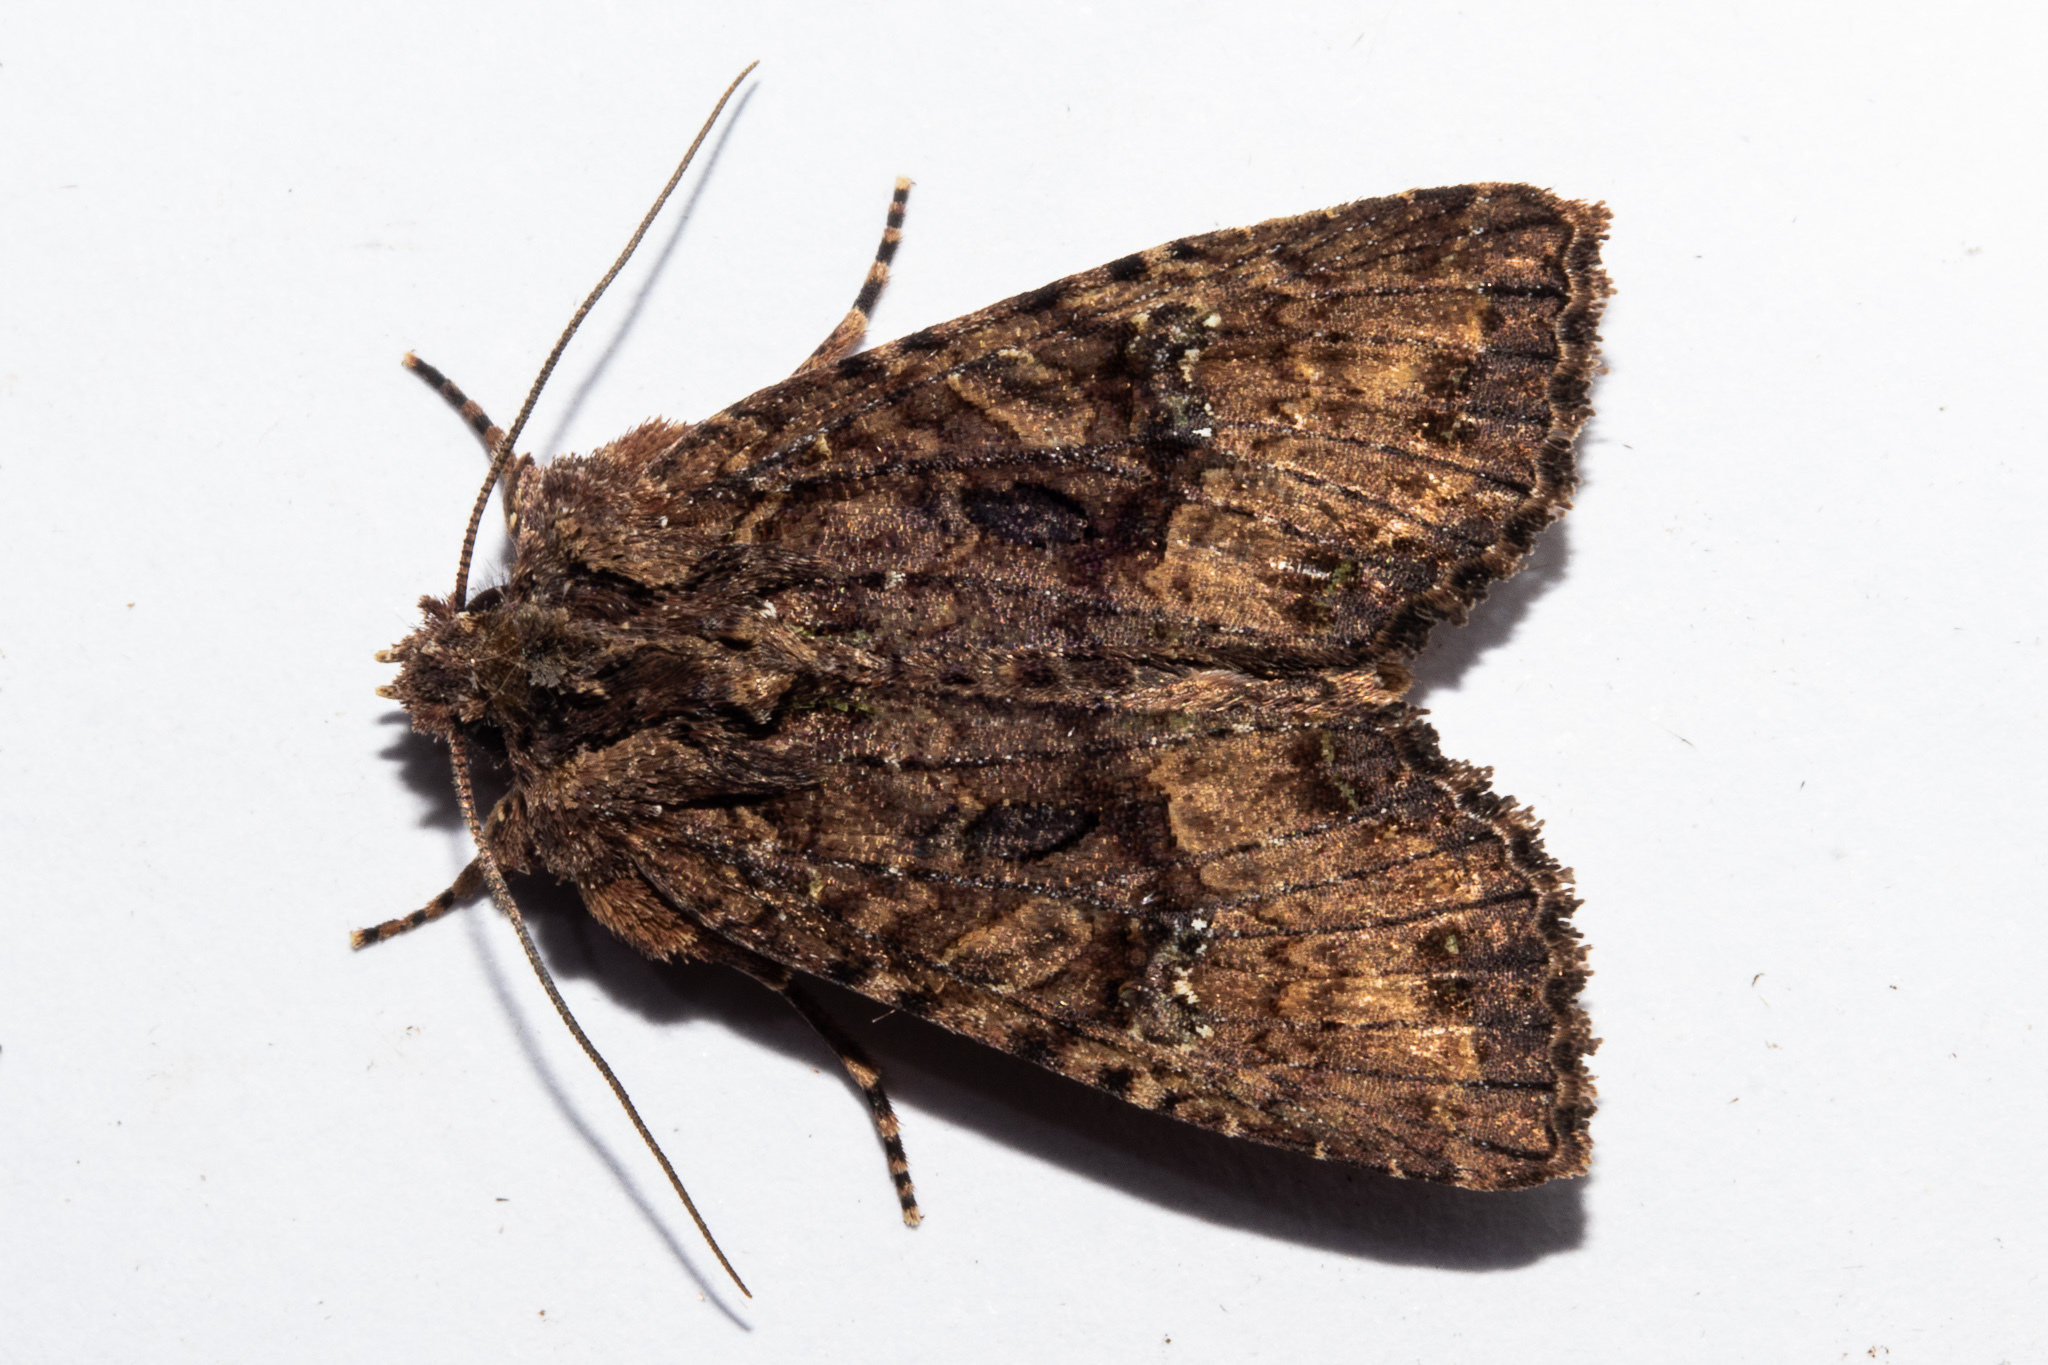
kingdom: Animalia
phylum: Arthropoda
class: Insecta
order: Lepidoptera
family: Noctuidae
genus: Meterana
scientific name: Meterana ochthistis
